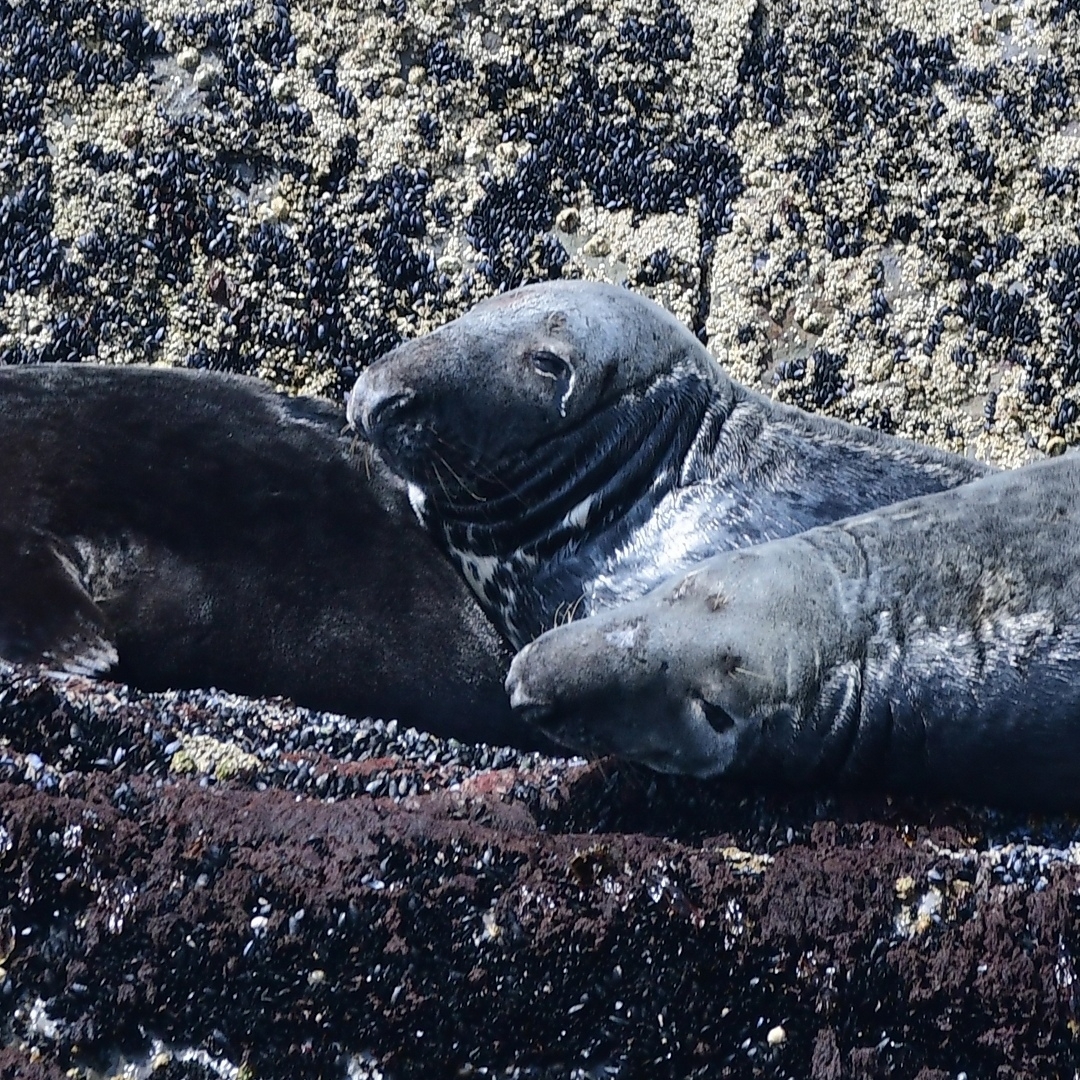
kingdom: Animalia
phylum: Chordata
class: Mammalia
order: Carnivora
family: Phocidae
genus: Halichoerus
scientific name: Halichoerus grypus
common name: Grey seal
